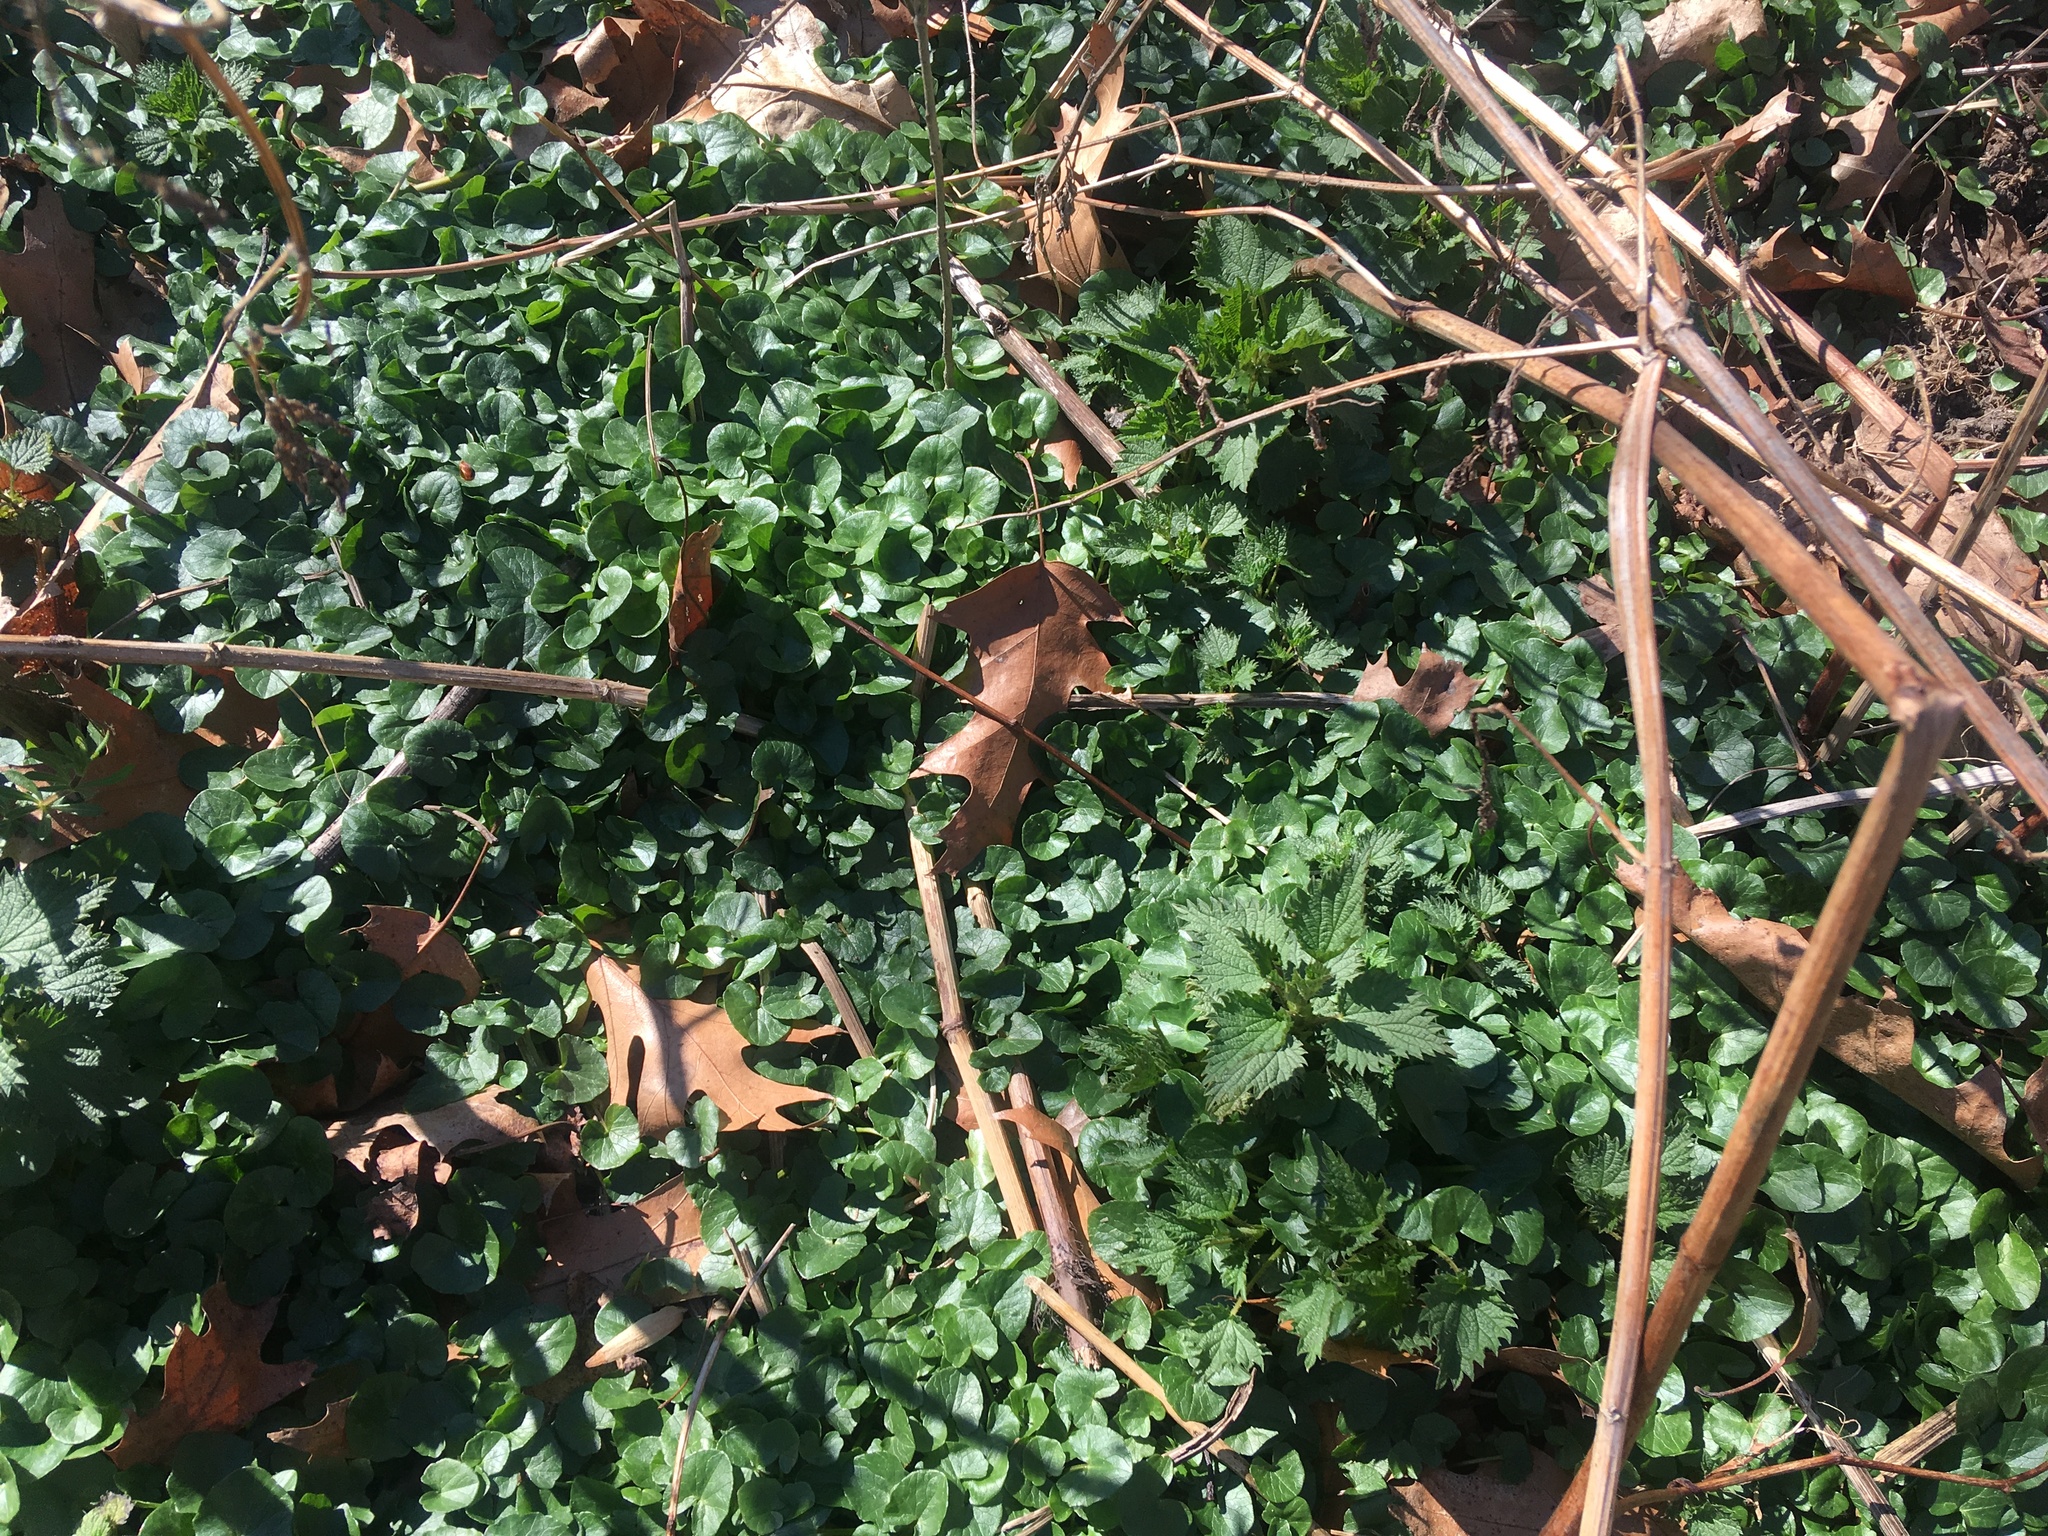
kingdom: Plantae
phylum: Tracheophyta
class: Magnoliopsida
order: Ranunculales
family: Ranunculaceae
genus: Ficaria
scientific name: Ficaria verna
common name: Lesser celandine
